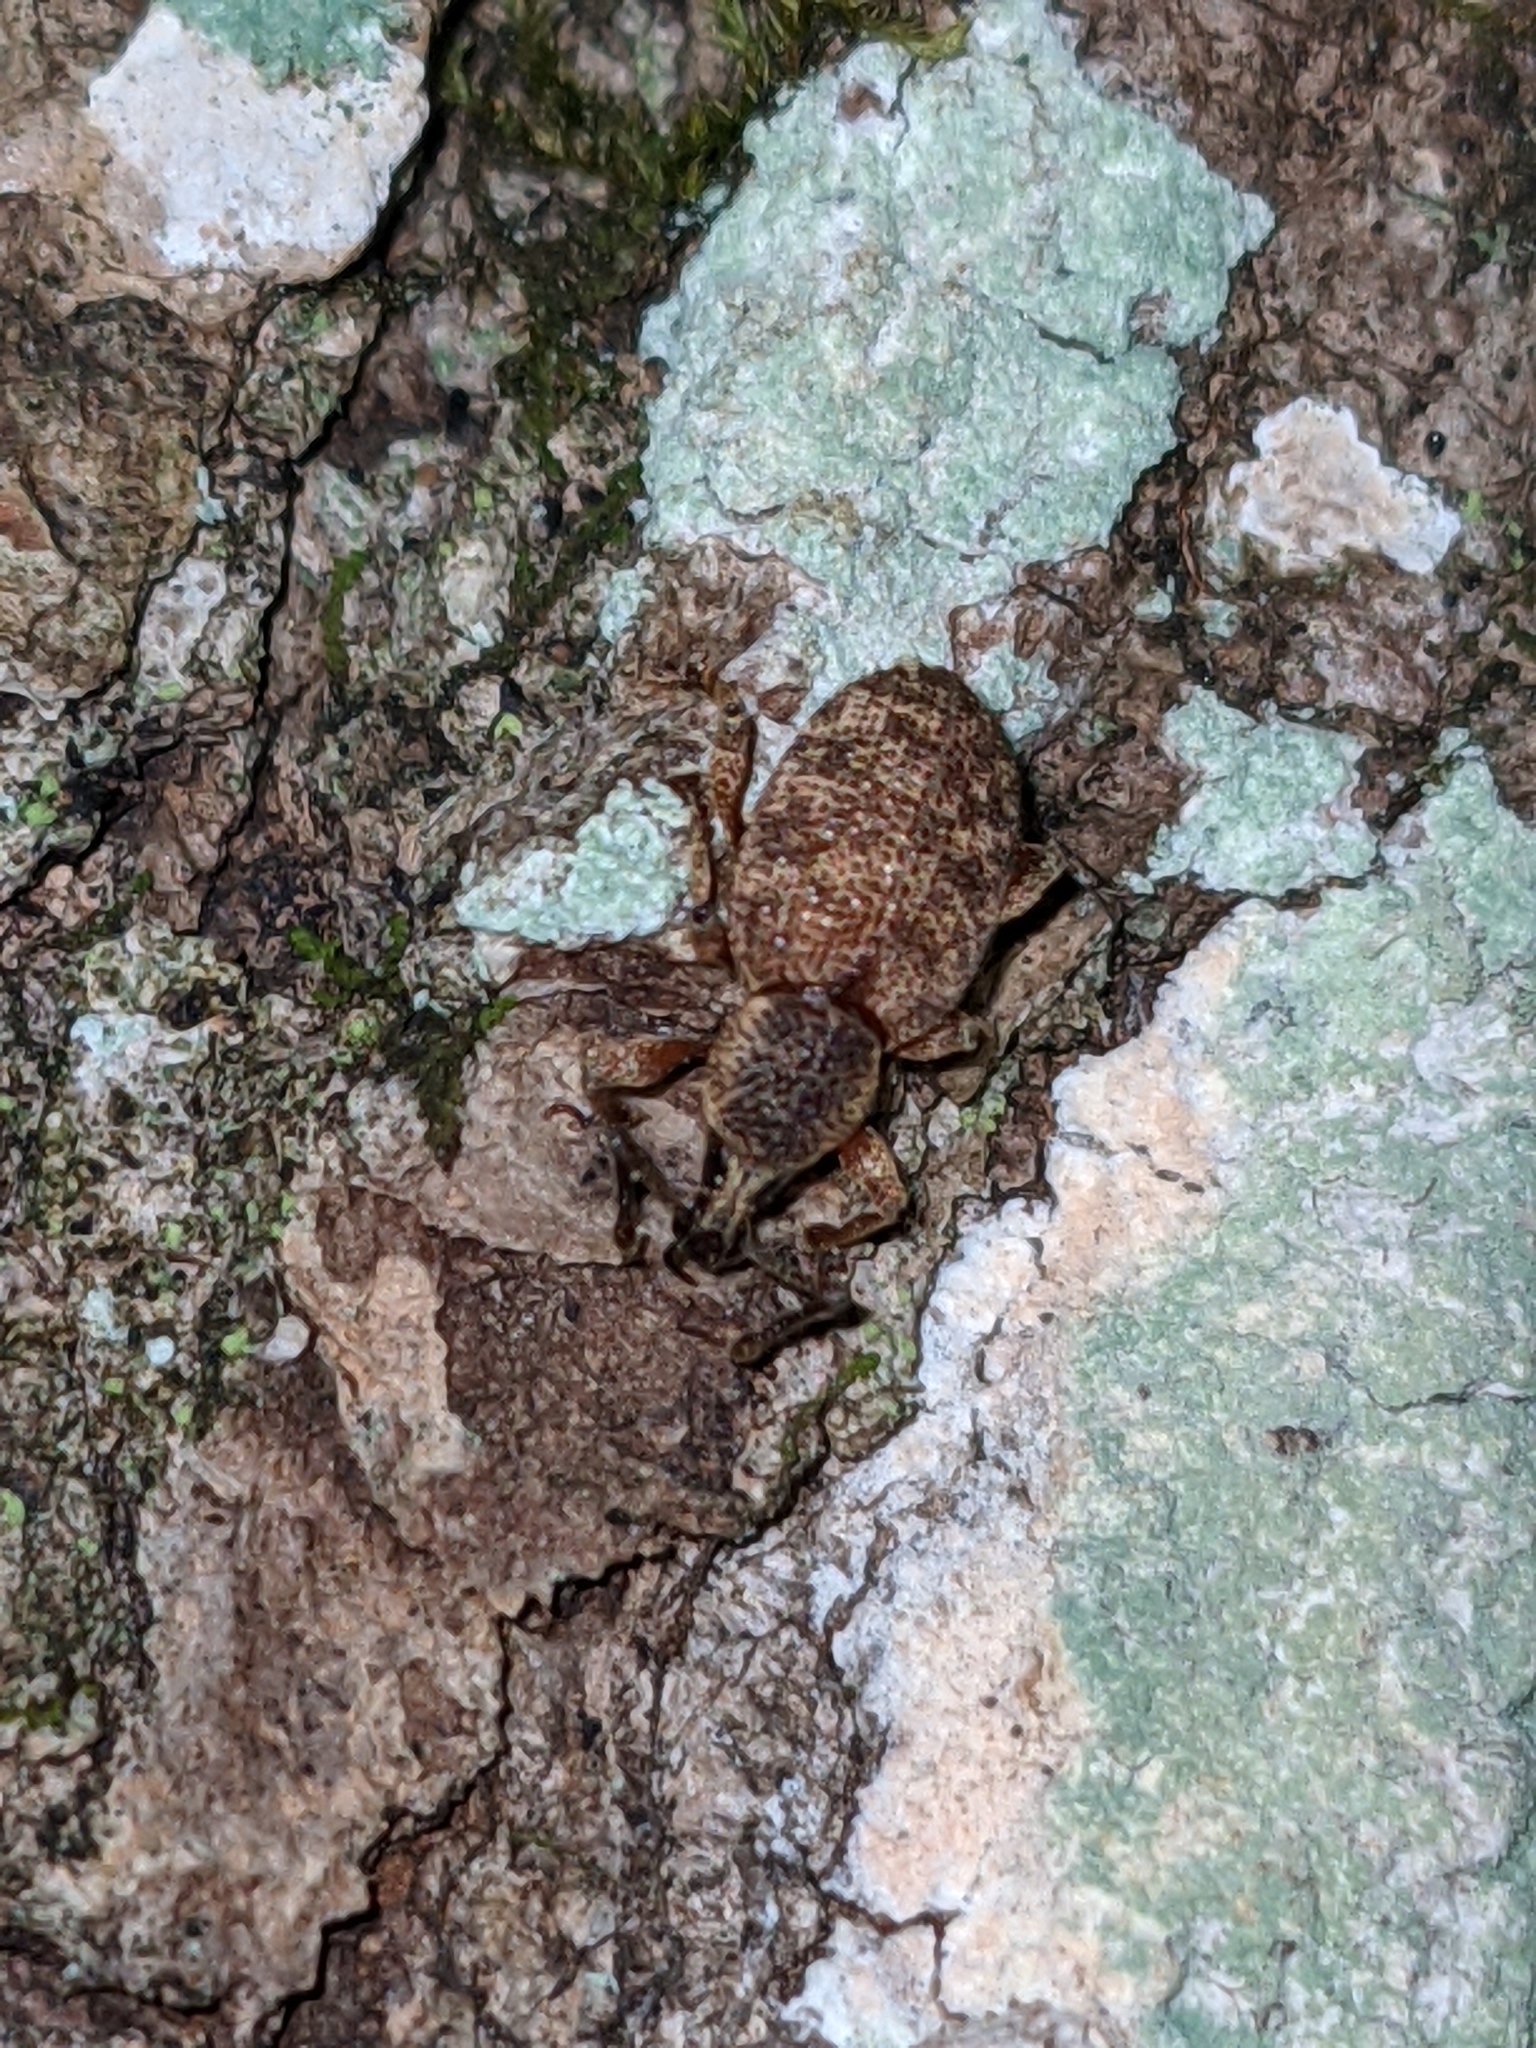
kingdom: Animalia
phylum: Arthropoda
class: Insecta
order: Coleoptera
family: Curculionidae
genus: Otiorhynchus
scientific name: Otiorhynchus singularis
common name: Clay-coloured weevil
